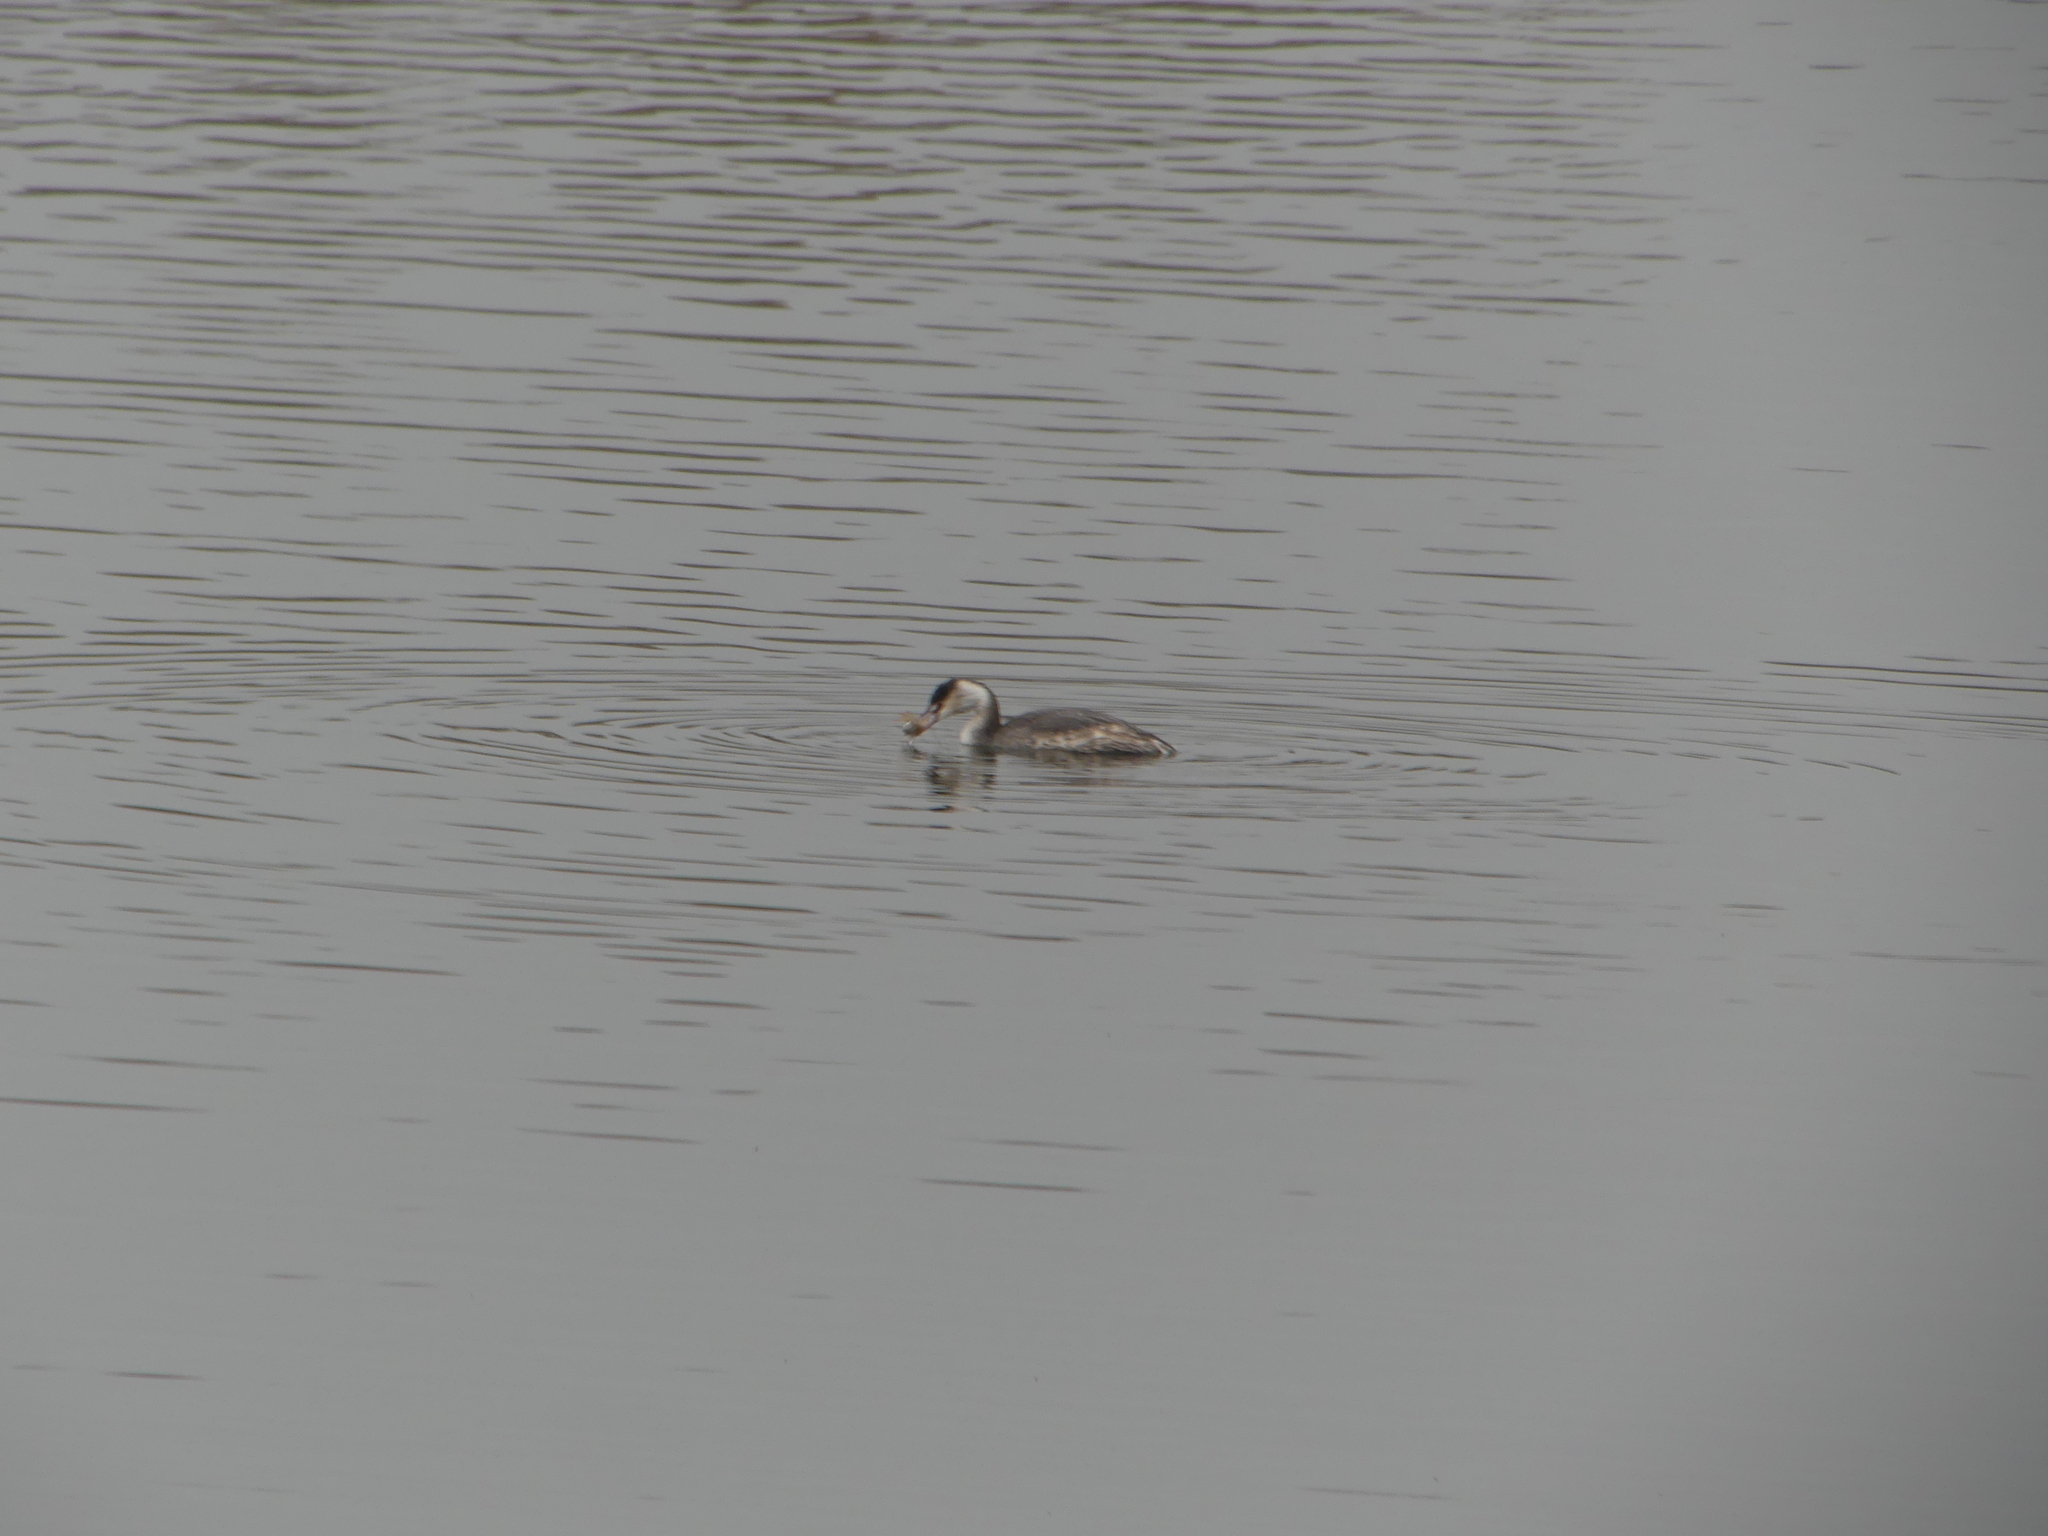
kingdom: Animalia
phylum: Chordata
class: Aves
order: Podicipediformes
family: Podicipedidae
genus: Podiceps
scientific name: Podiceps cristatus
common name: Great crested grebe
